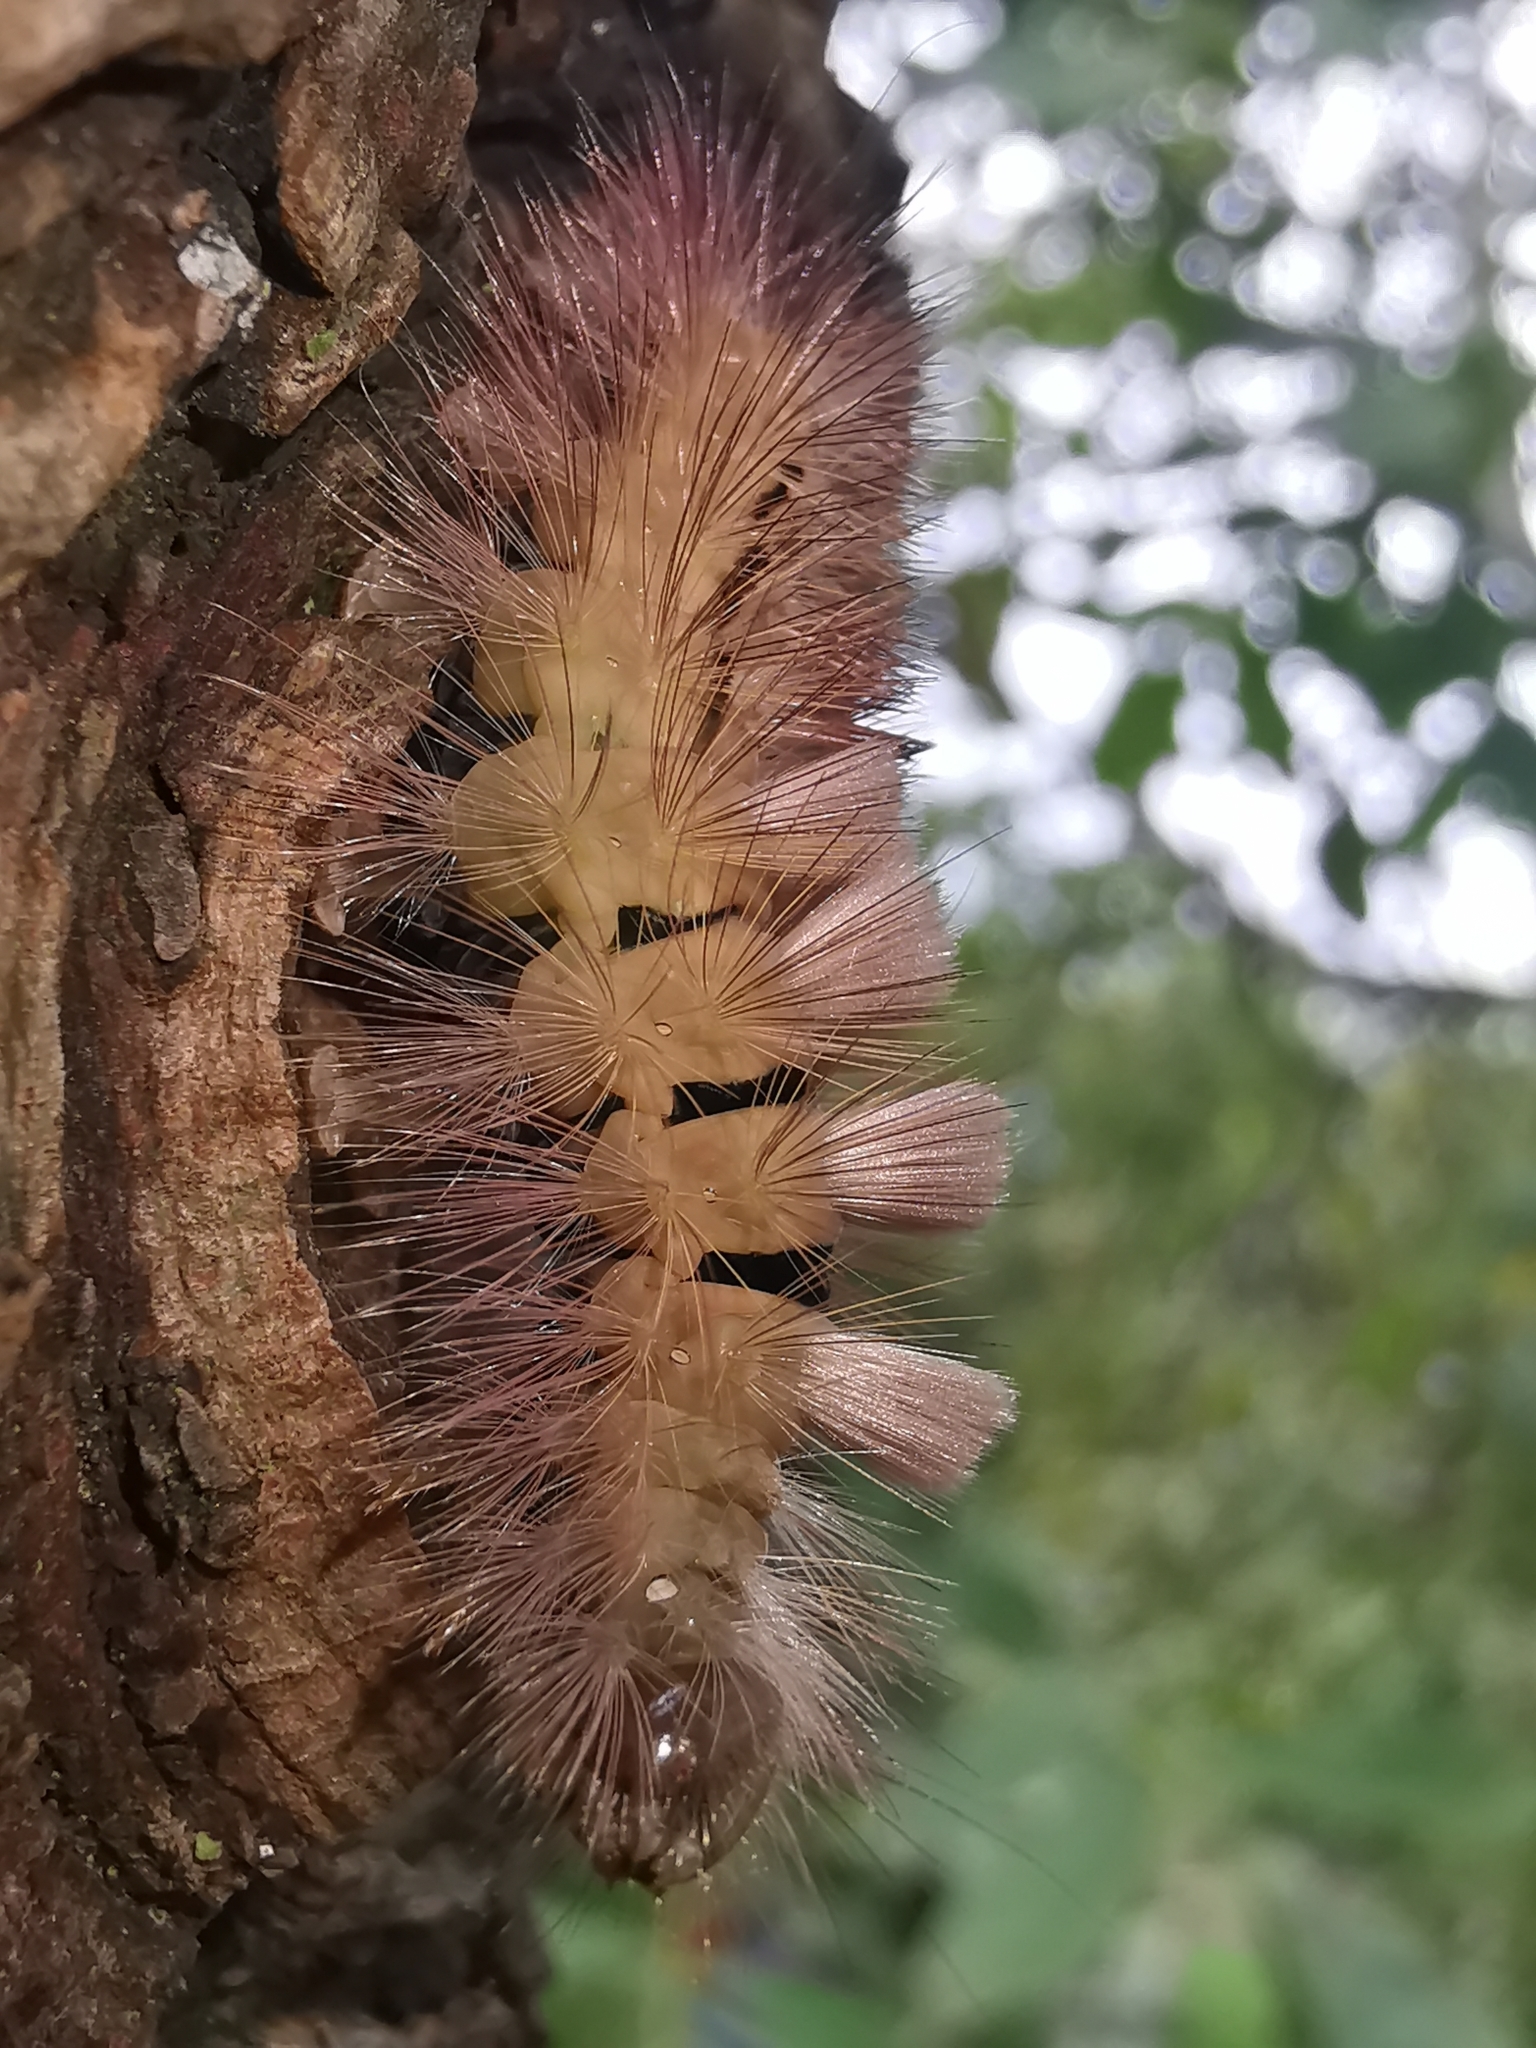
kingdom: Animalia
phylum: Arthropoda
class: Insecta
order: Lepidoptera
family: Erebidae
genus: Calliteara
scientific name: Calliteara pudibunda
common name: Pale tussock
